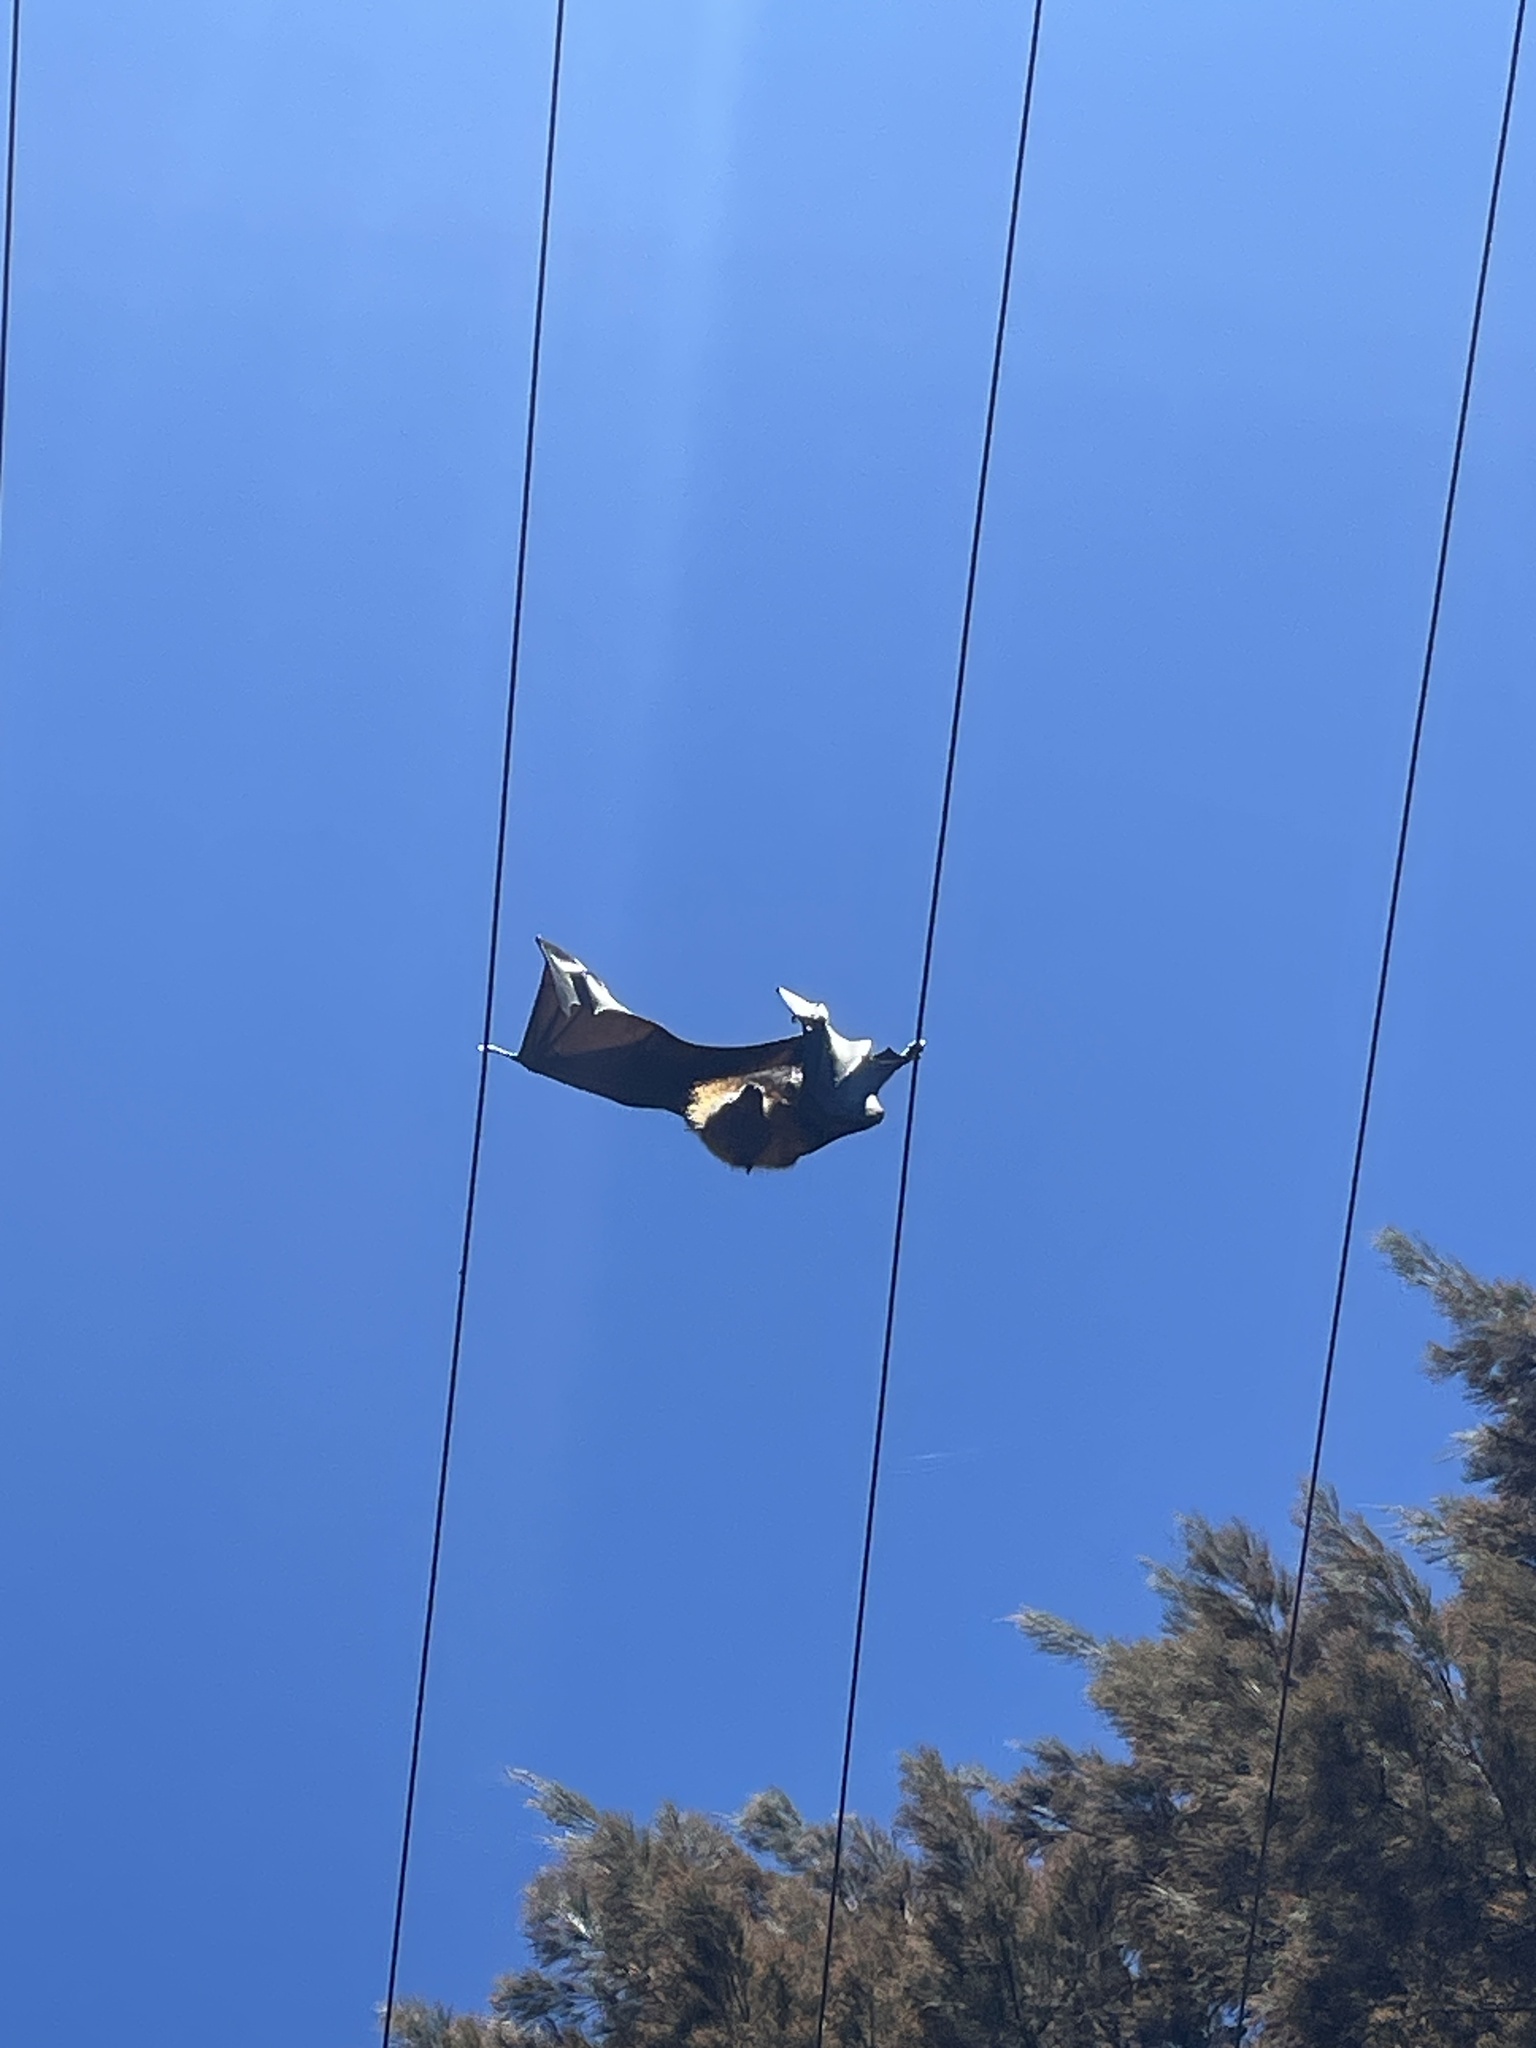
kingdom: Animalia
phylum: Chordata
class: Mammalia
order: Chiroptera
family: Pteropodidae
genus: Pteropus
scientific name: Pteropus poliocephalus
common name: Gray-headed flying fox
